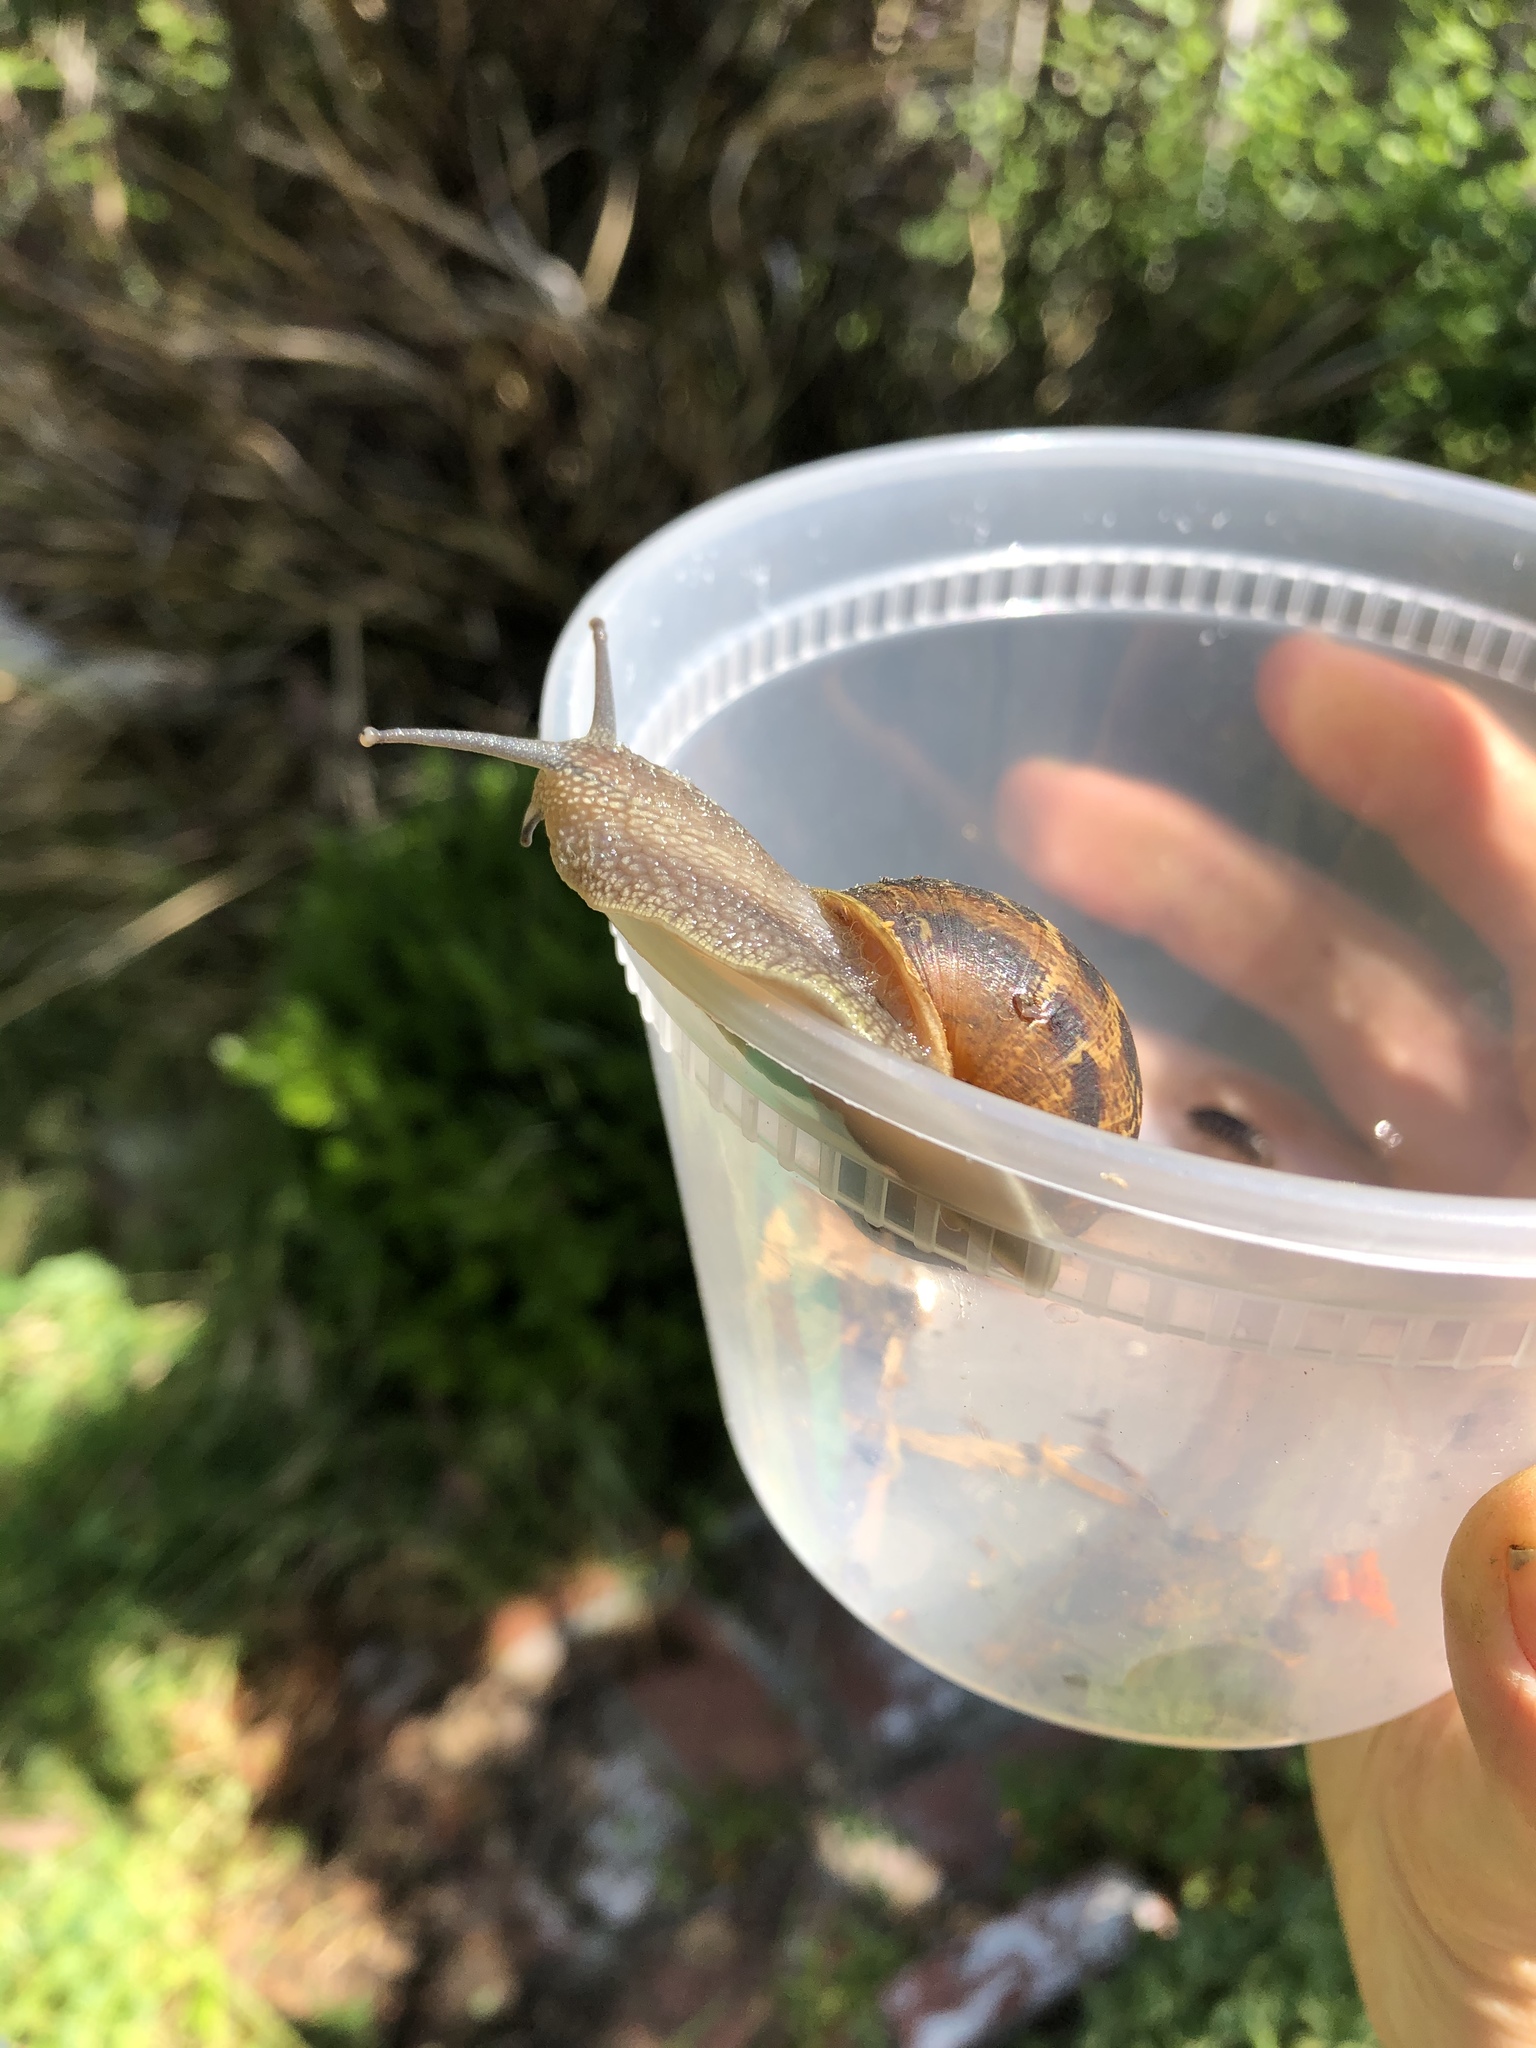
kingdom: Animalia
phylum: Mollusca
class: Gastropoda
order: Stylommatophora
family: Helicidae
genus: Cornu
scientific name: Cornu aspersum
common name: Brown garden snail
